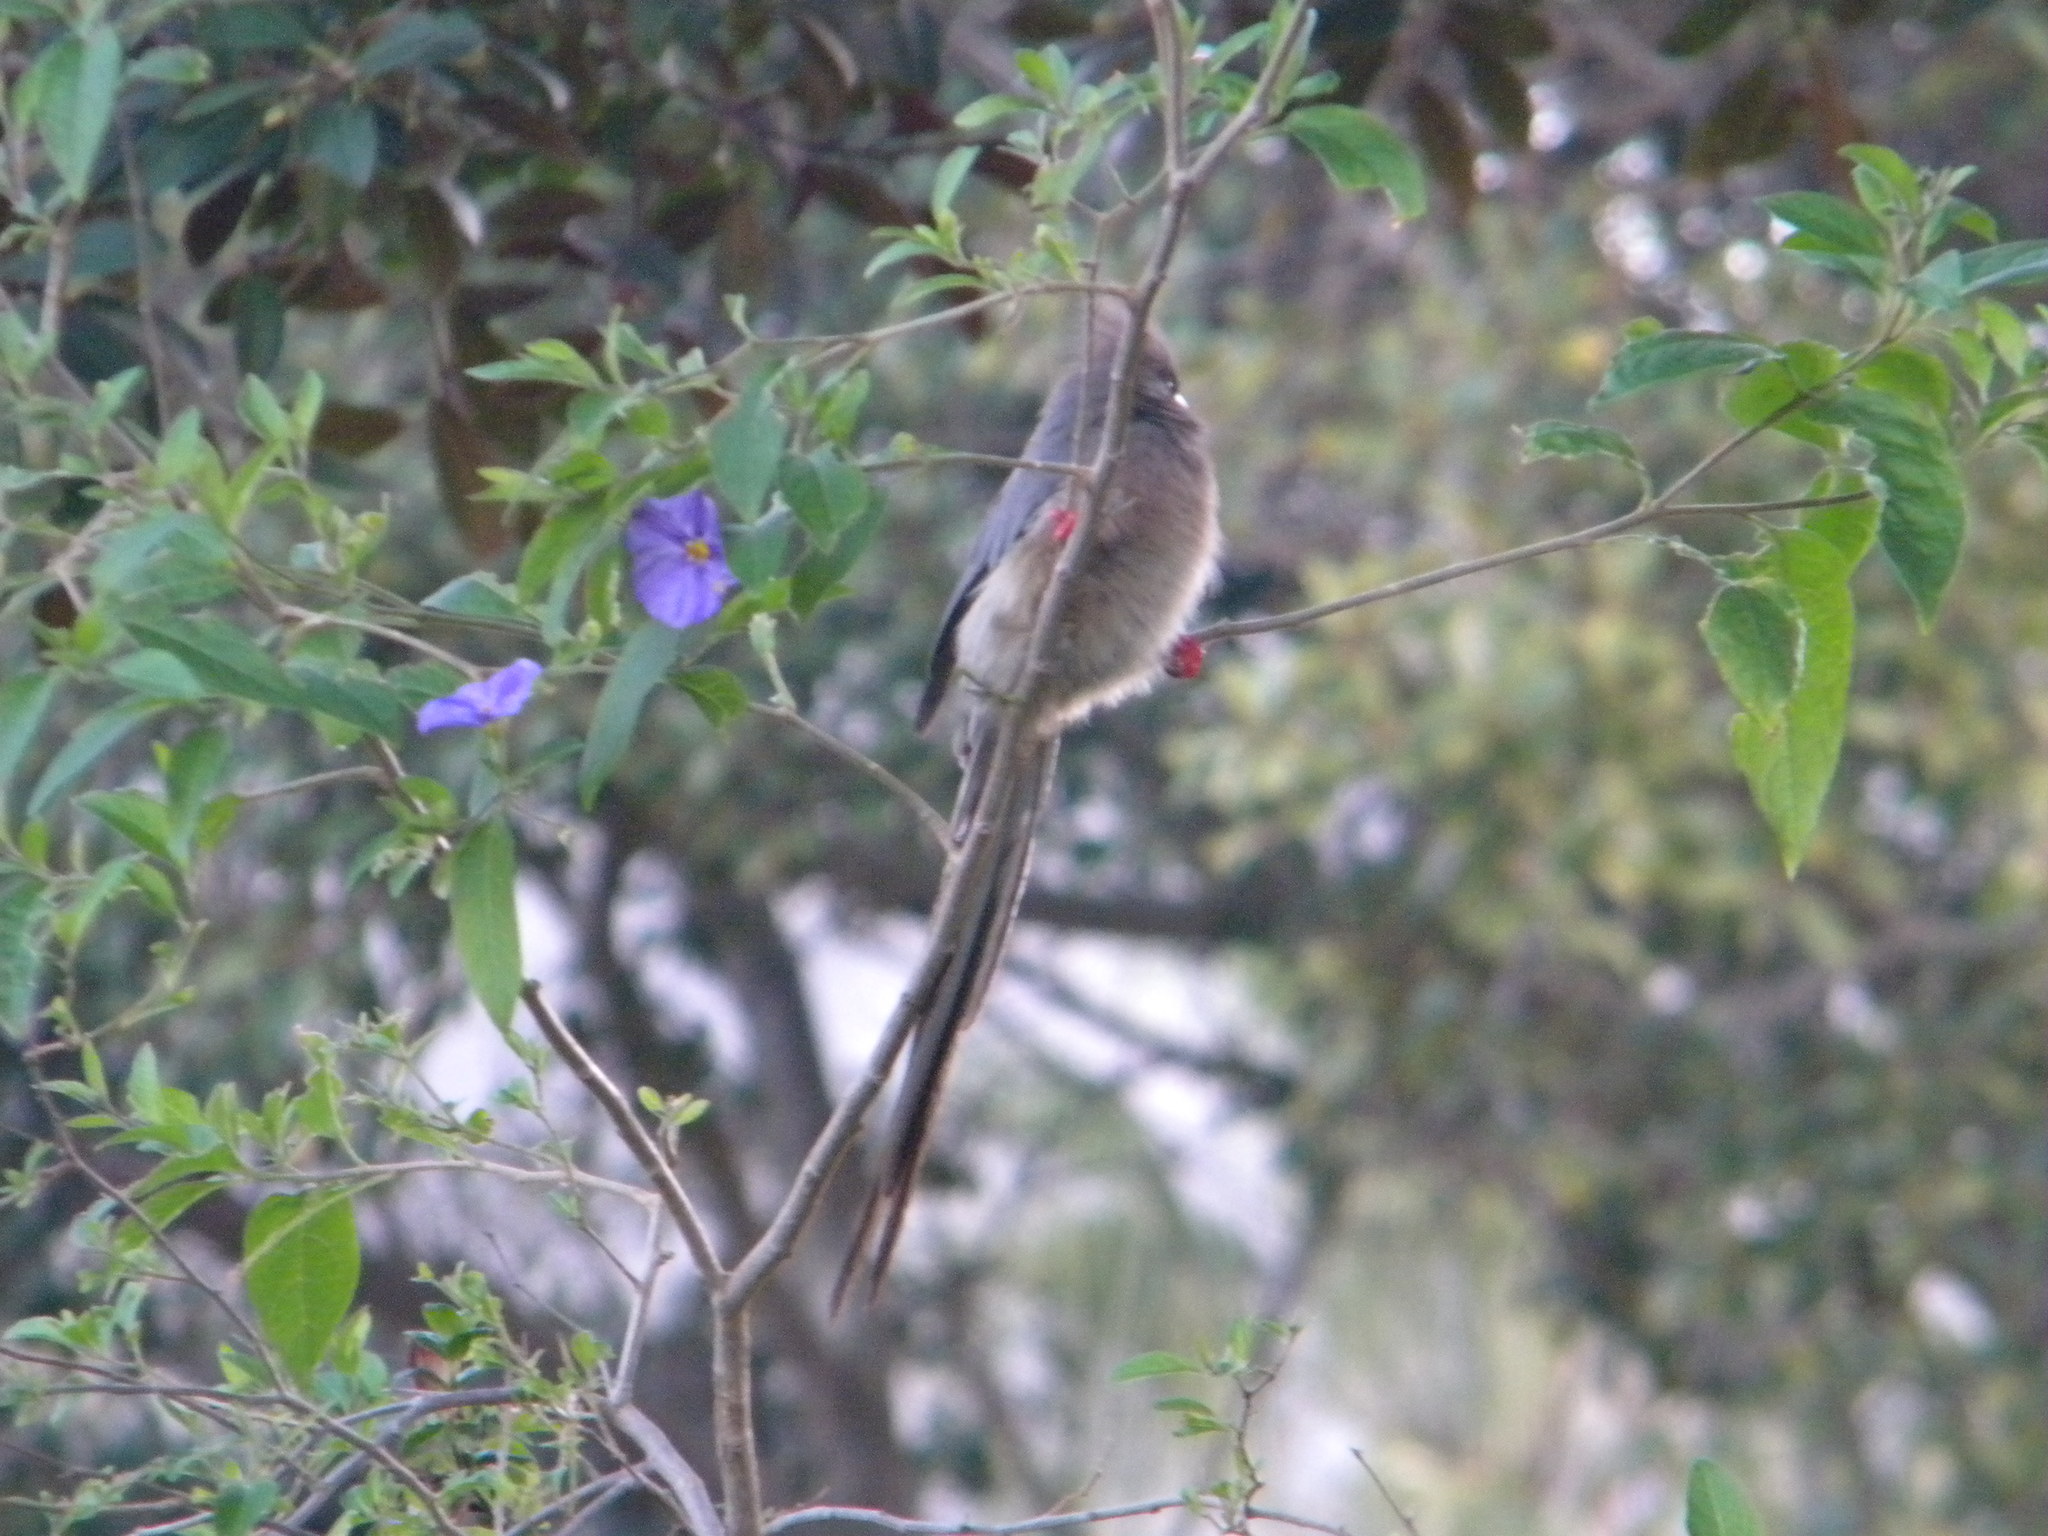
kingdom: Animalia
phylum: Chordata
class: Aves
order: Coliiformes
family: Coliidae
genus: Colius
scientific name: Colius colius
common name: White-backed mousebird
